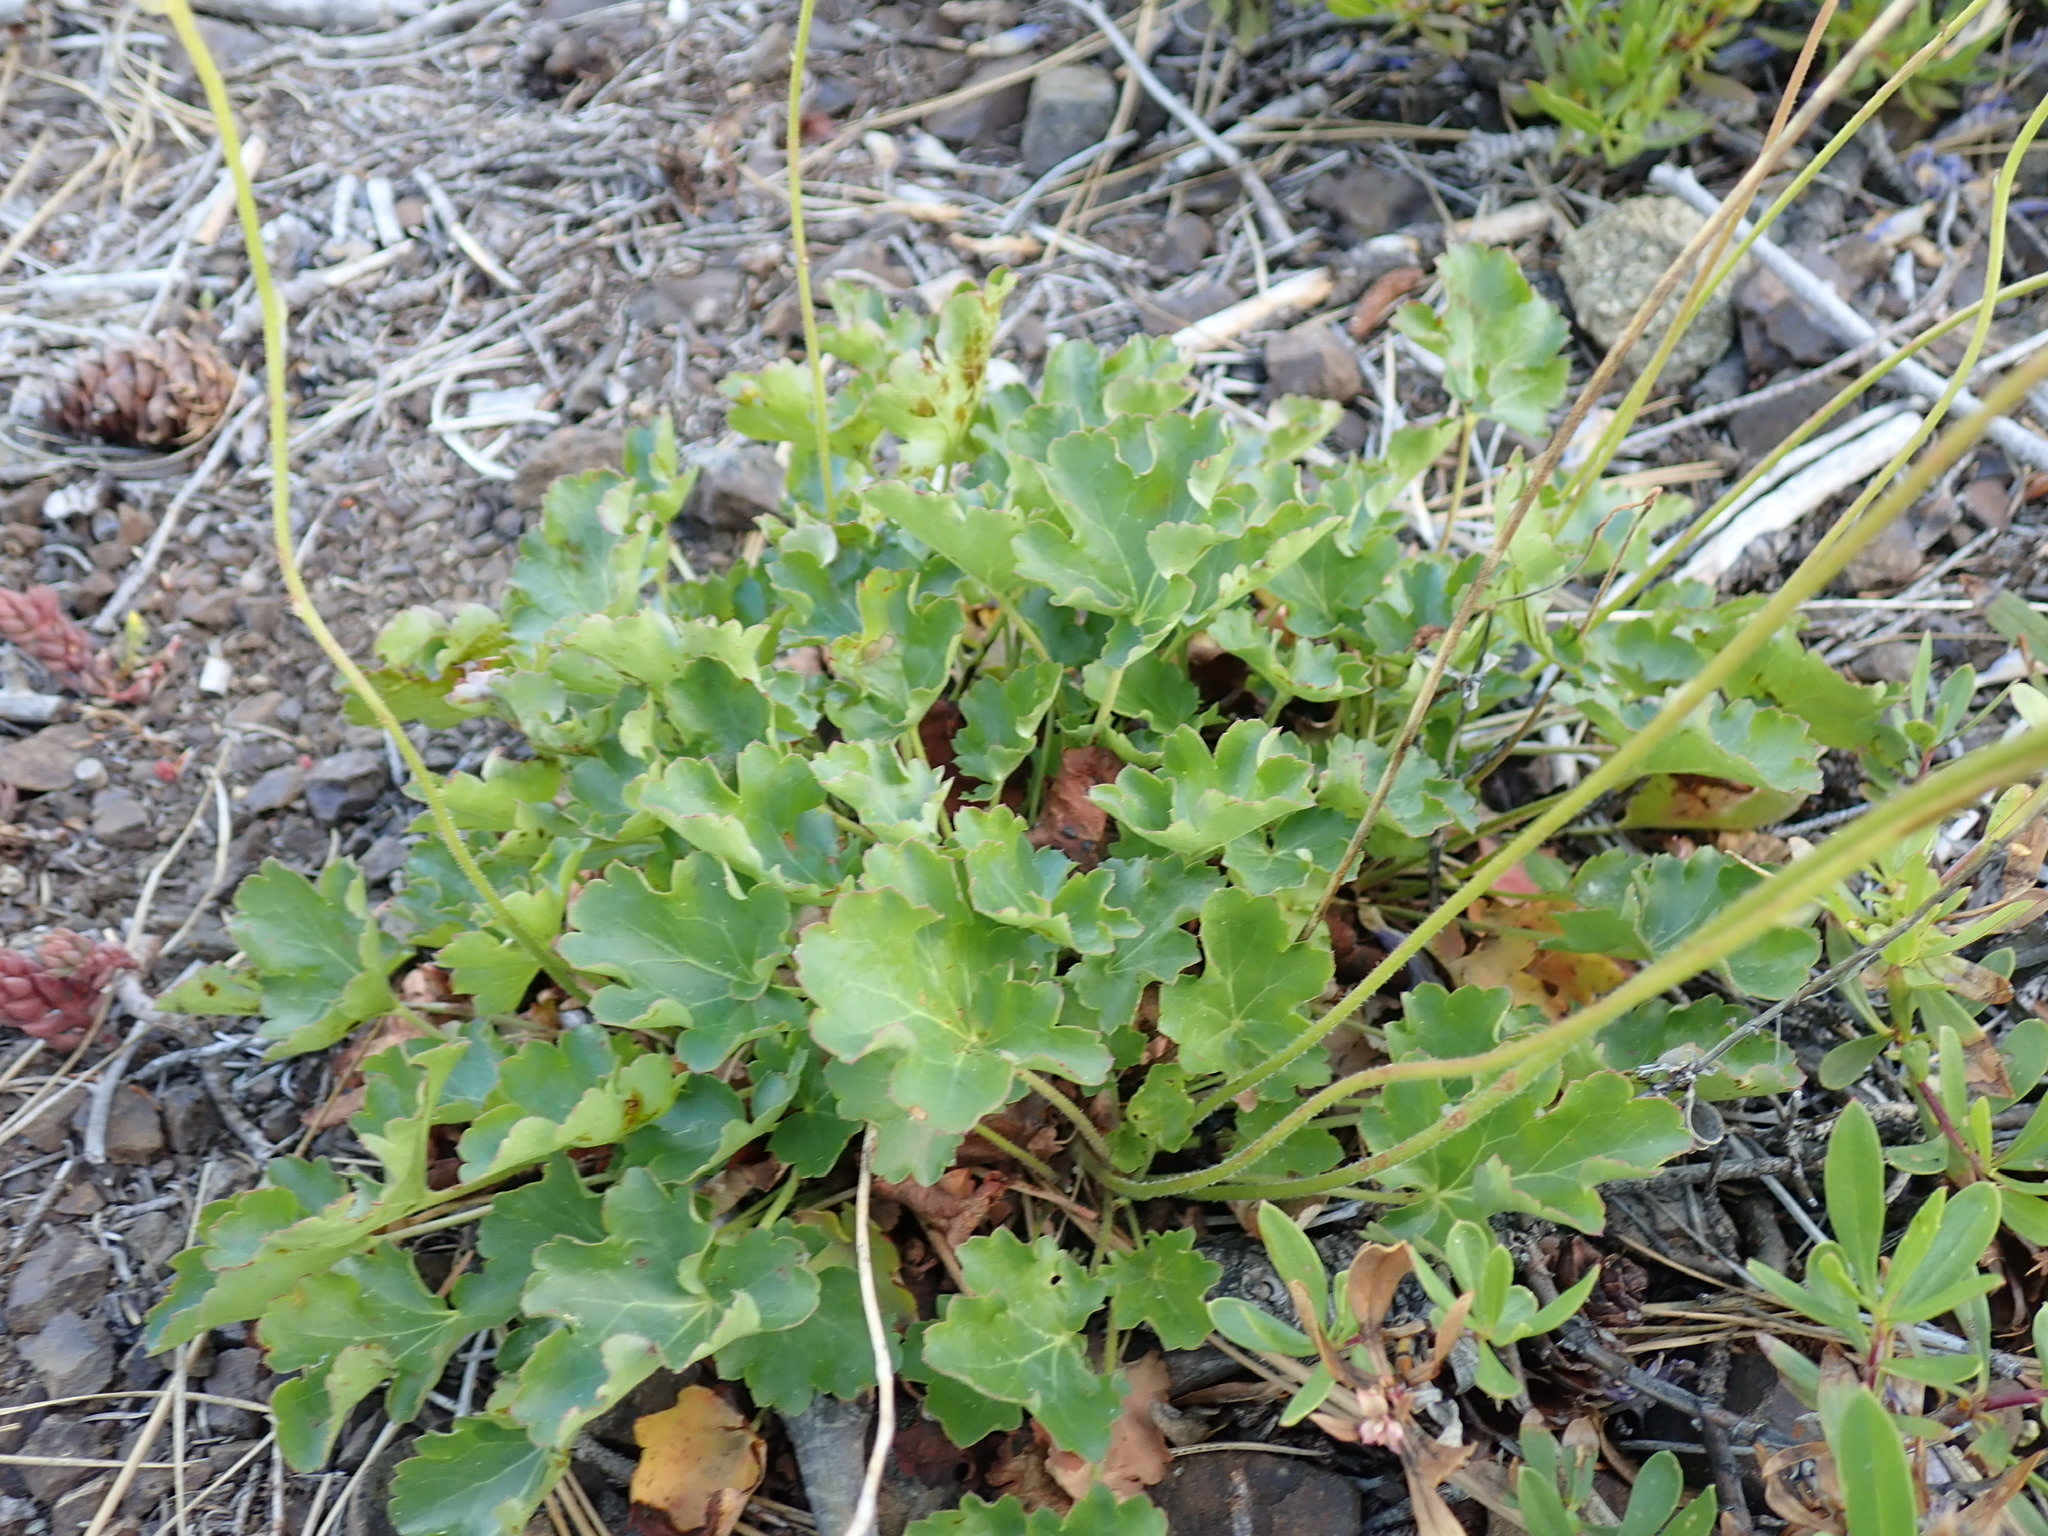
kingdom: Plantae
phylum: Tracheophyta
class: Magnoliopsida
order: Saxifragales
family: Saxifragaceae
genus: Heuchera
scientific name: Heuchera cylindrica
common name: Mat alumroot
